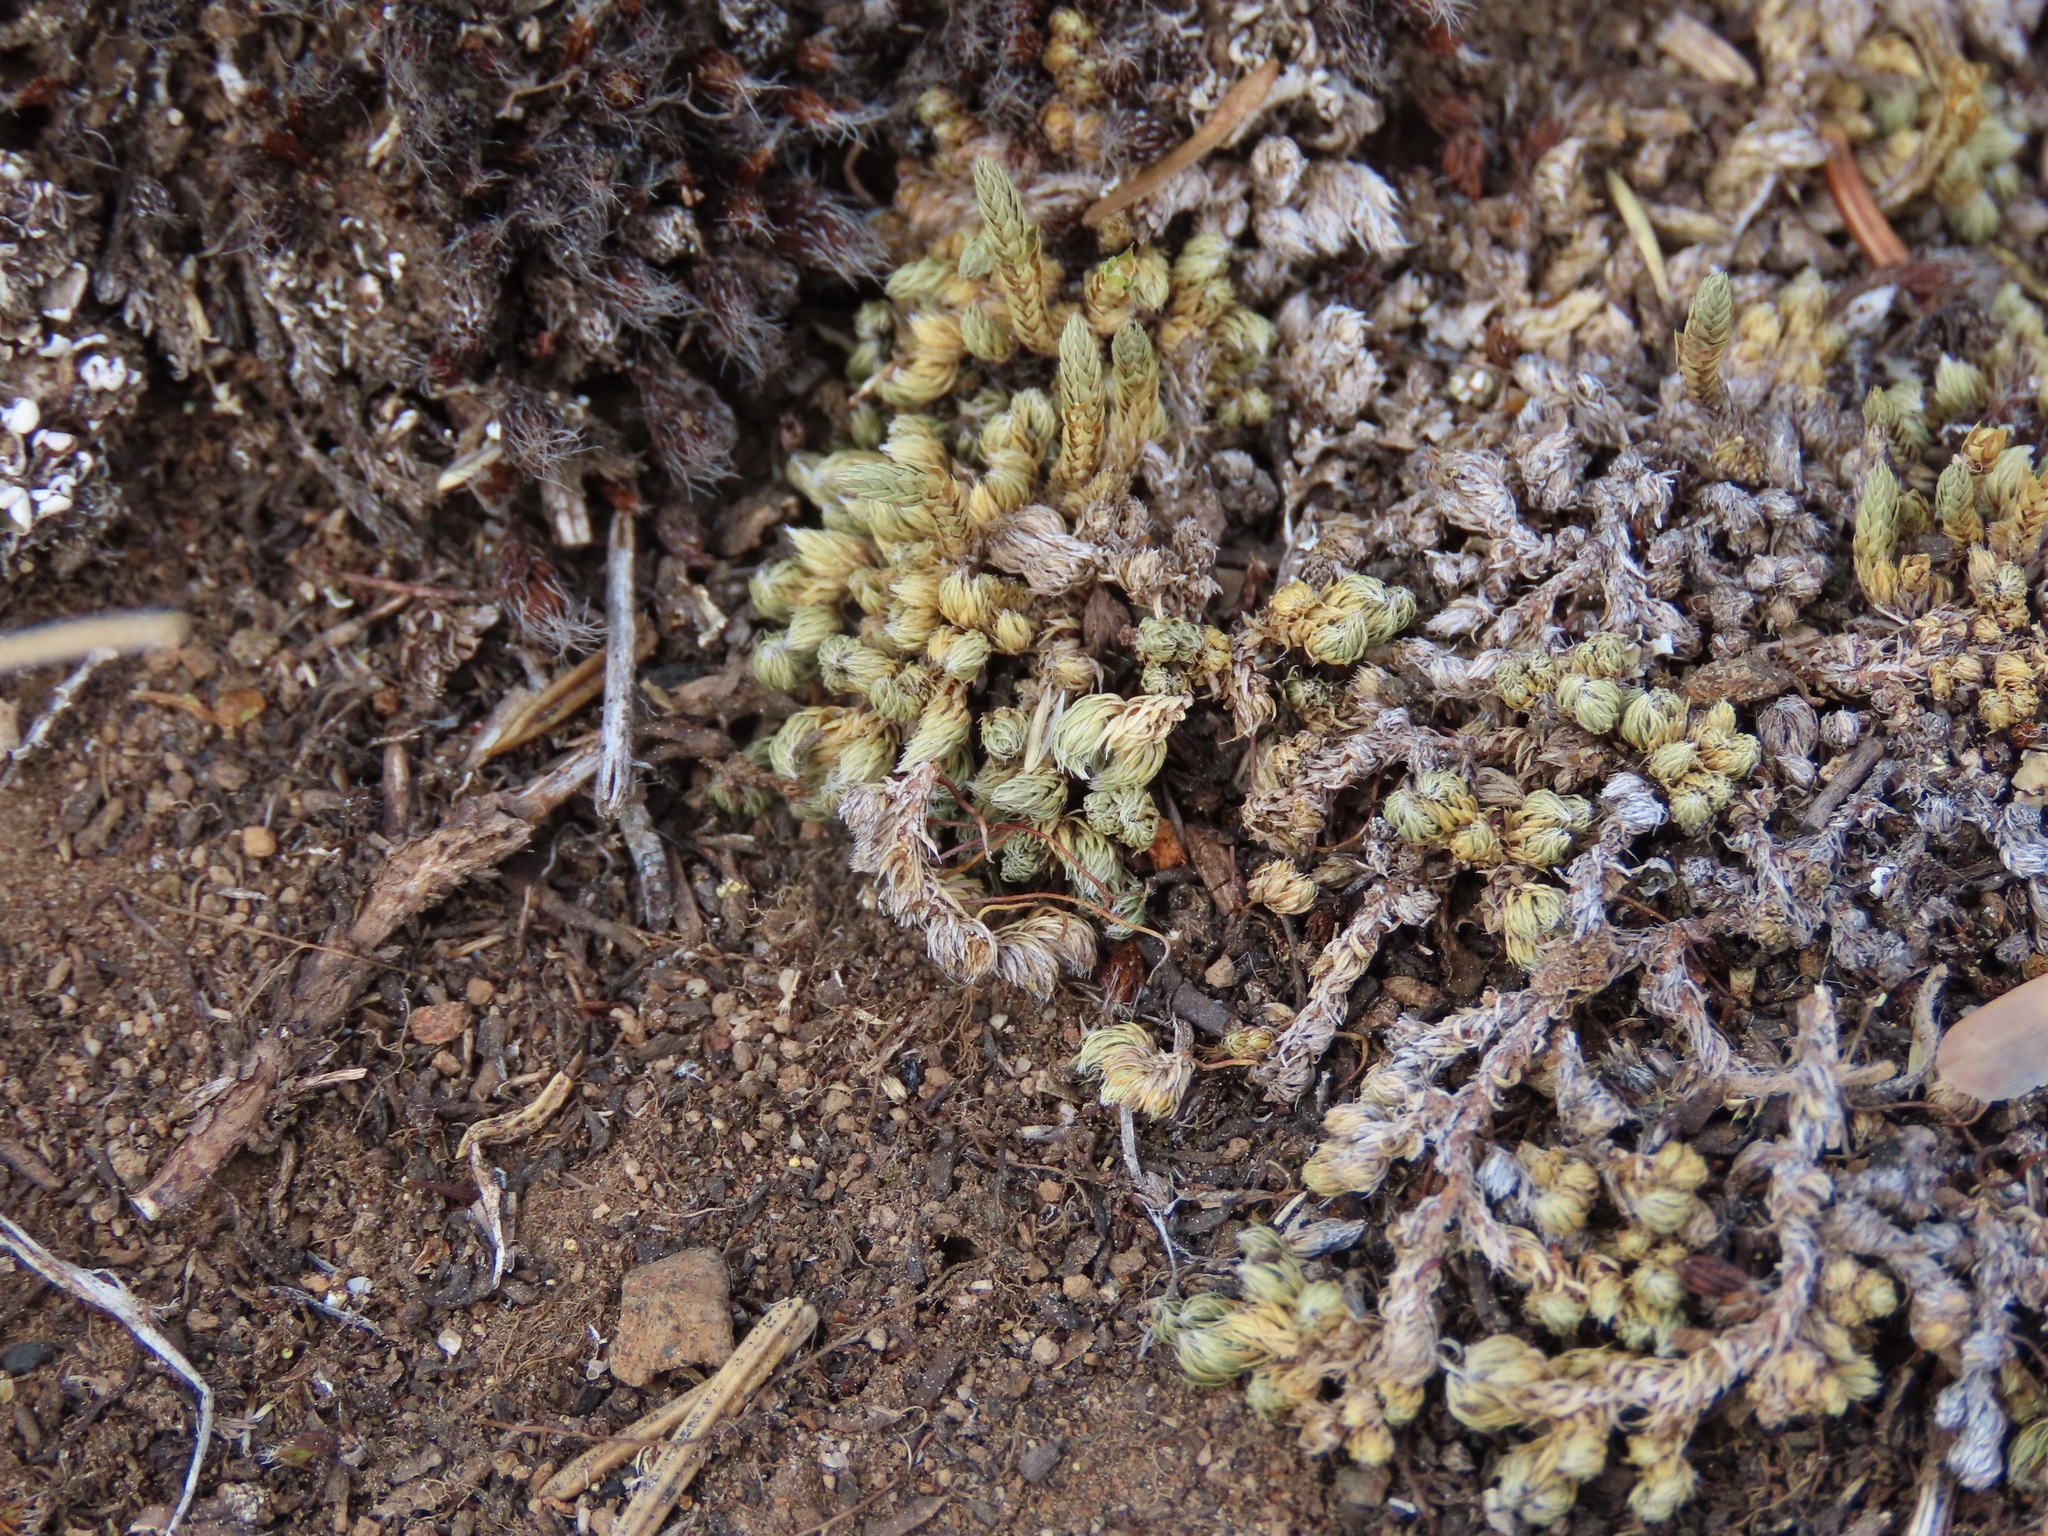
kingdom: Plantae
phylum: Tracheophyta
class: Lycopodiopsida
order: Selaginellales
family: Selaginellaceae
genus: Selaginella
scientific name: Selaginella densa
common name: Mountain spike-moss
